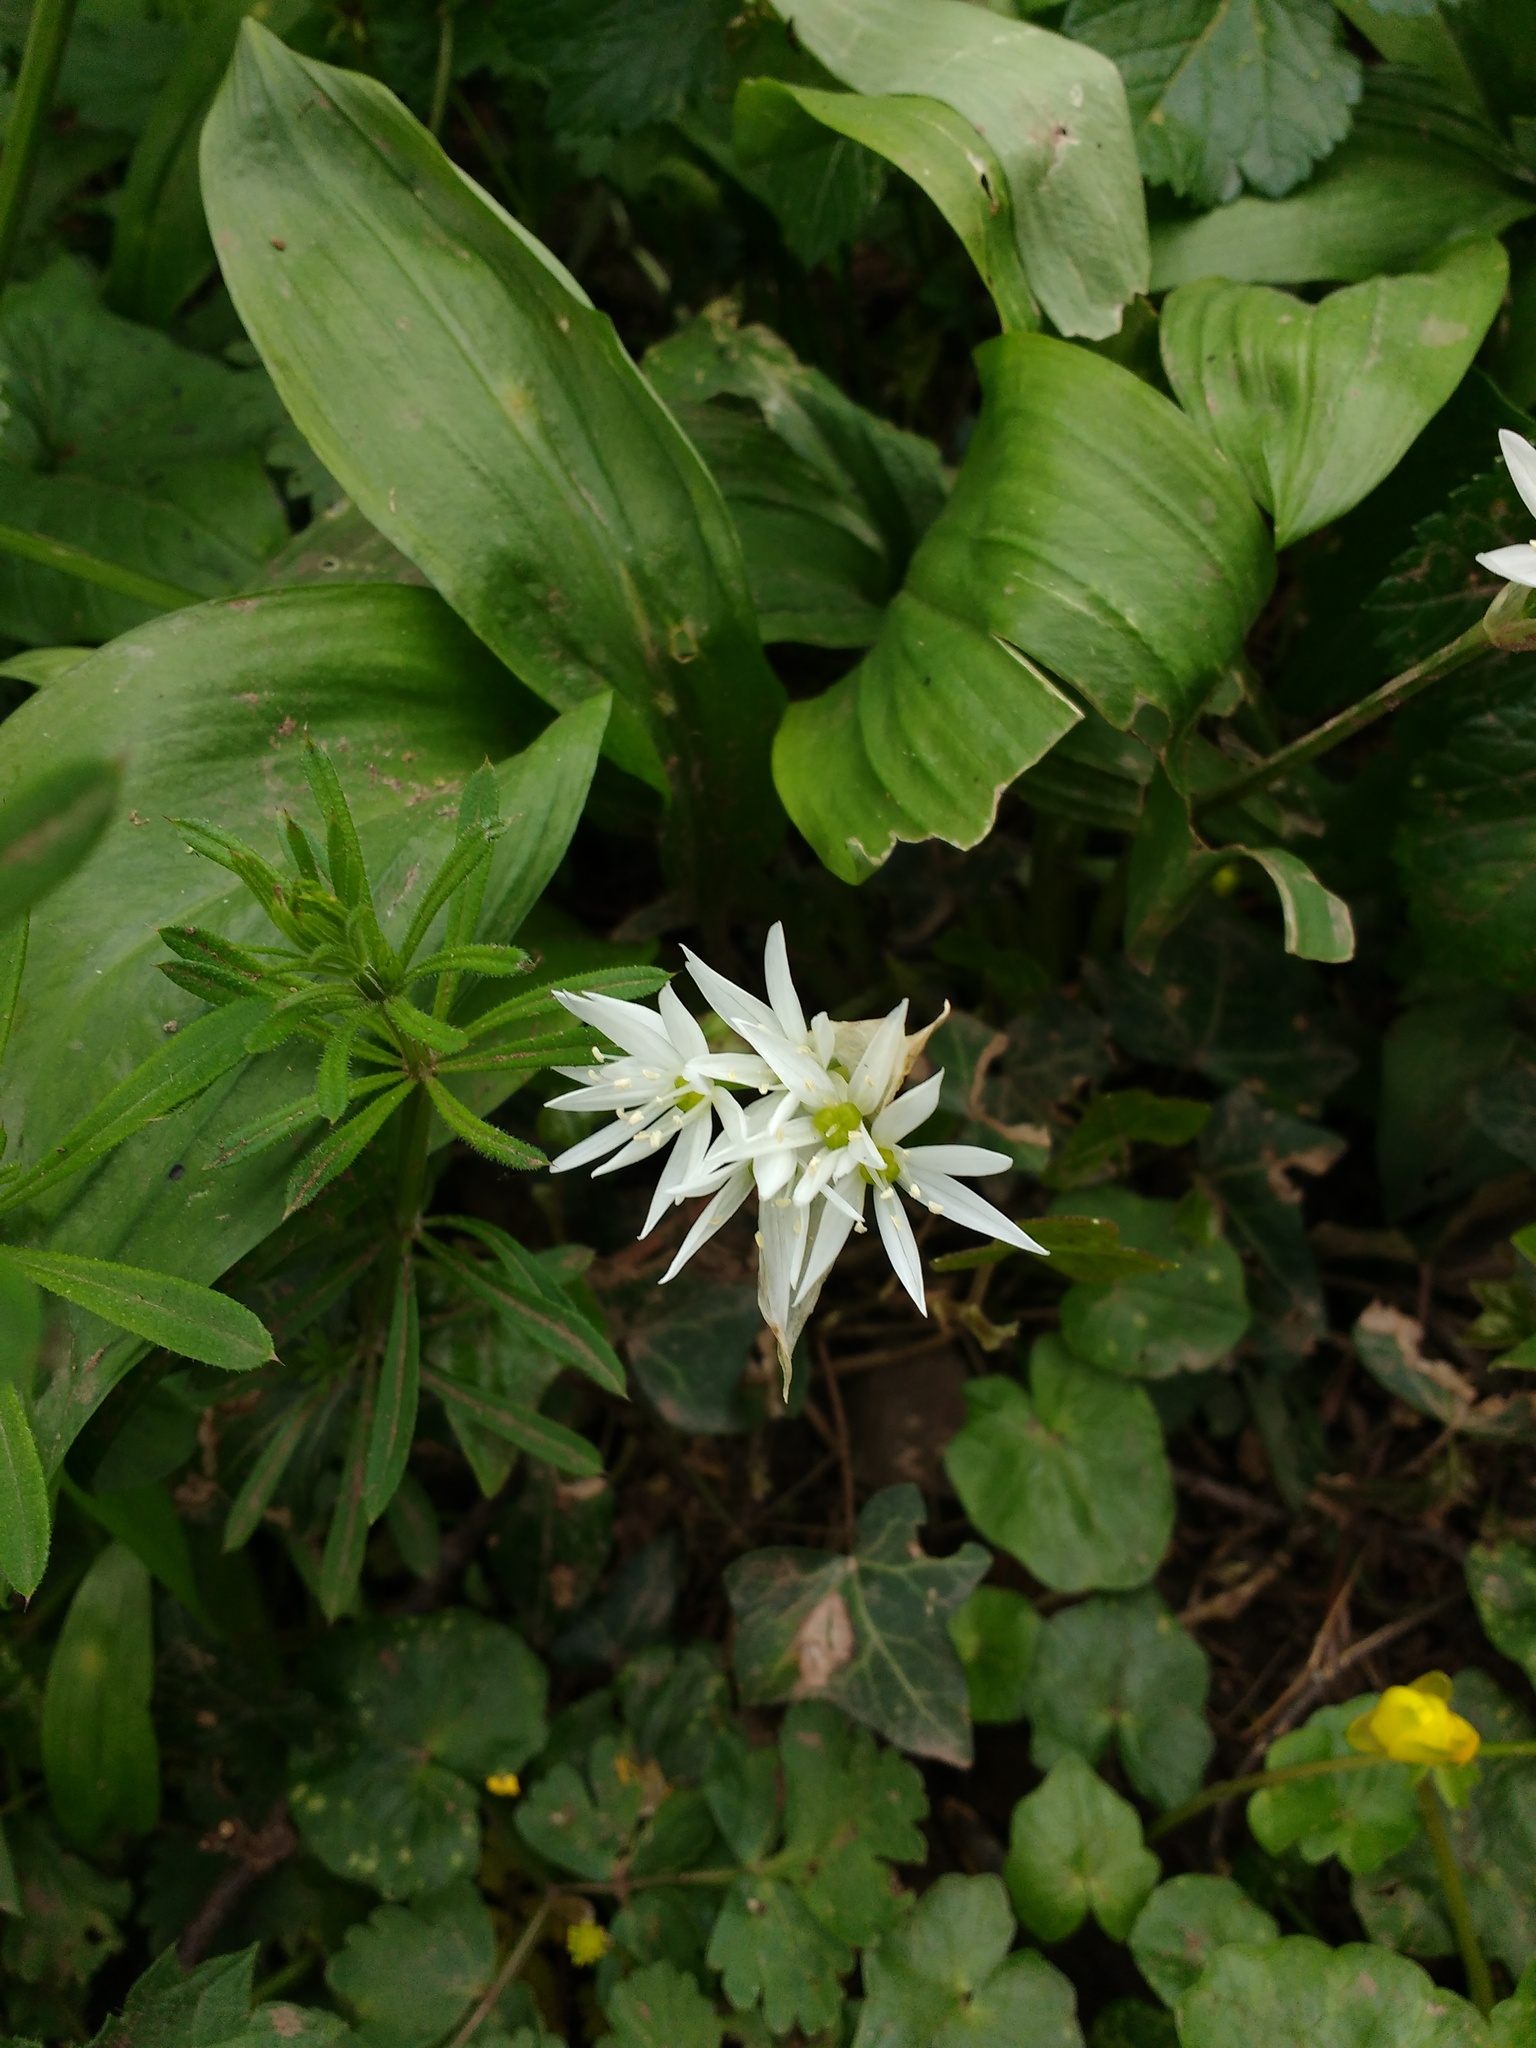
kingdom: Plantae
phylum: Tracheophyta
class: Liliopsida
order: Asparagales
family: Amaryllidaceae
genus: Allium
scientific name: Allium ursinum
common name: Ramsons
